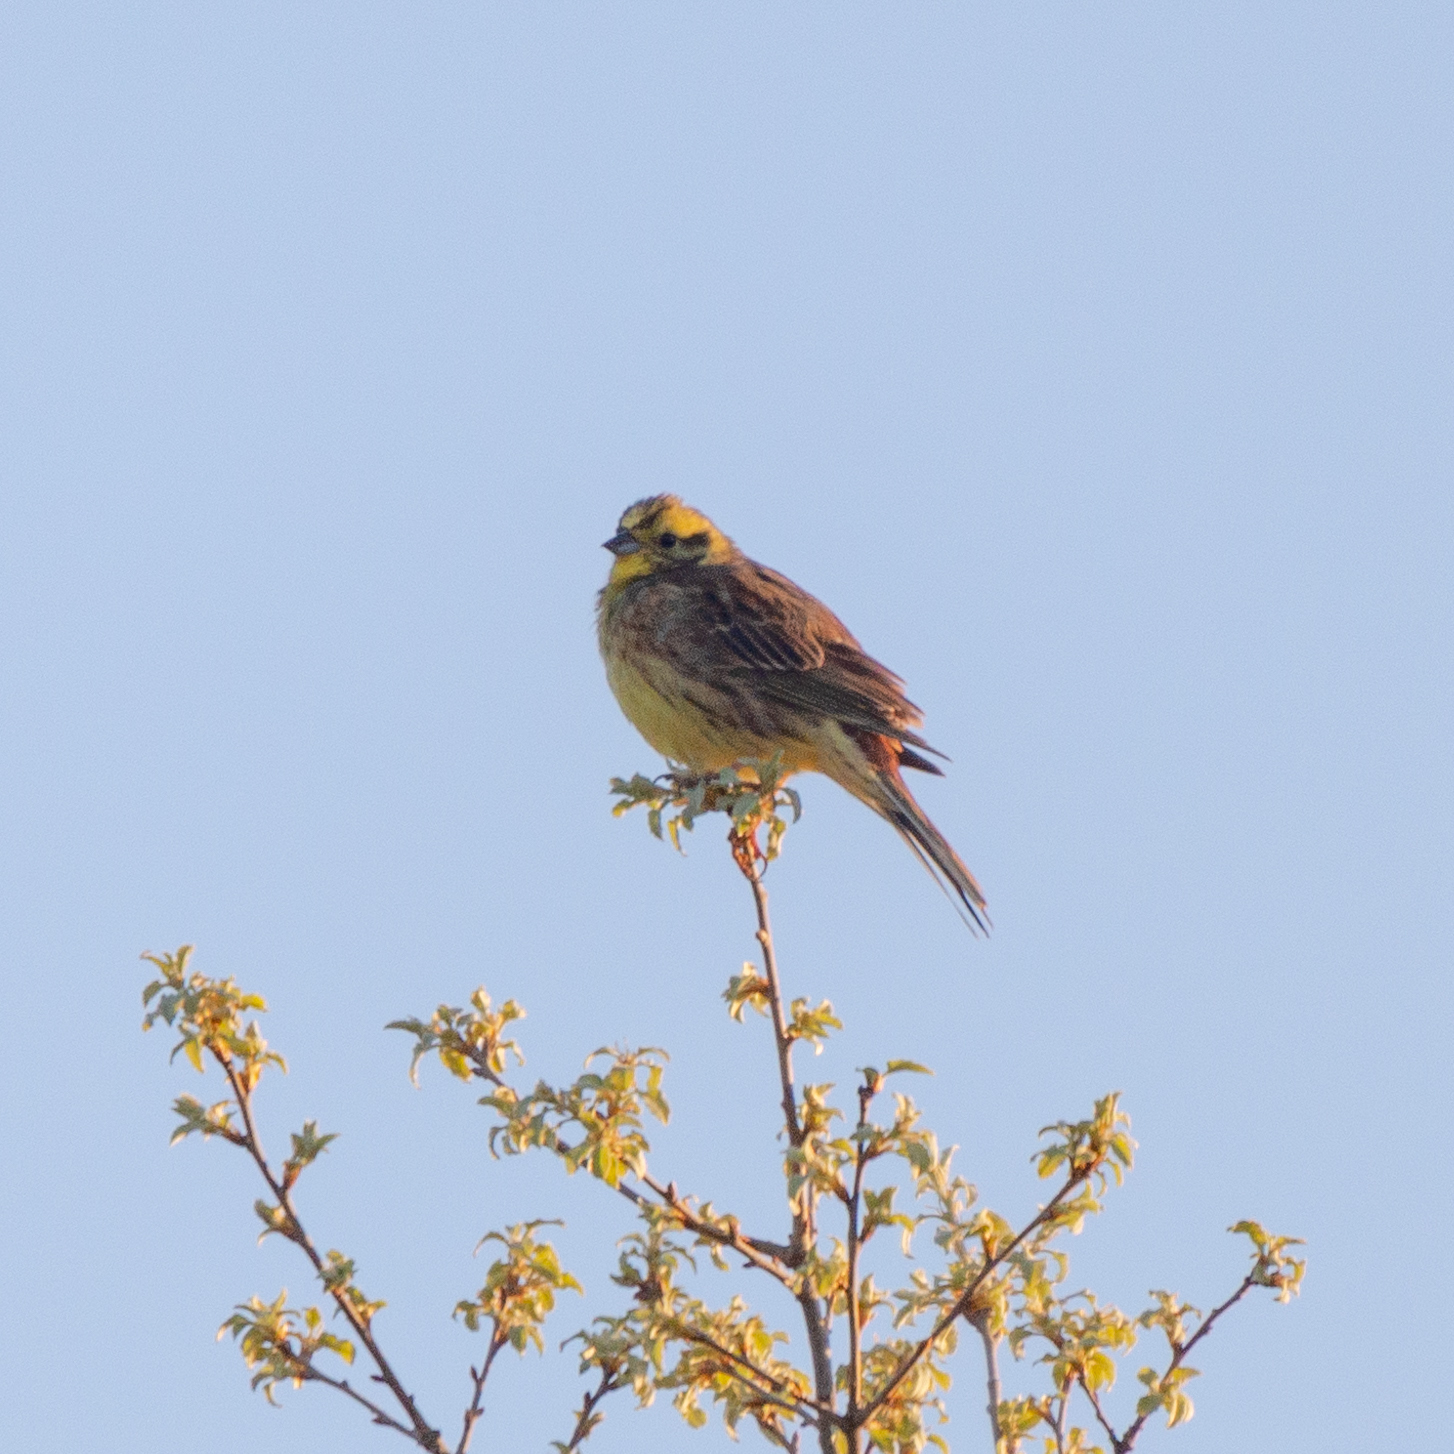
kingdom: Animalia
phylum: Chordata
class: Aves
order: Passeriformes
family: Emberizidae
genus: Emberiza
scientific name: Emberiza citrinella
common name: Yellowhammer
